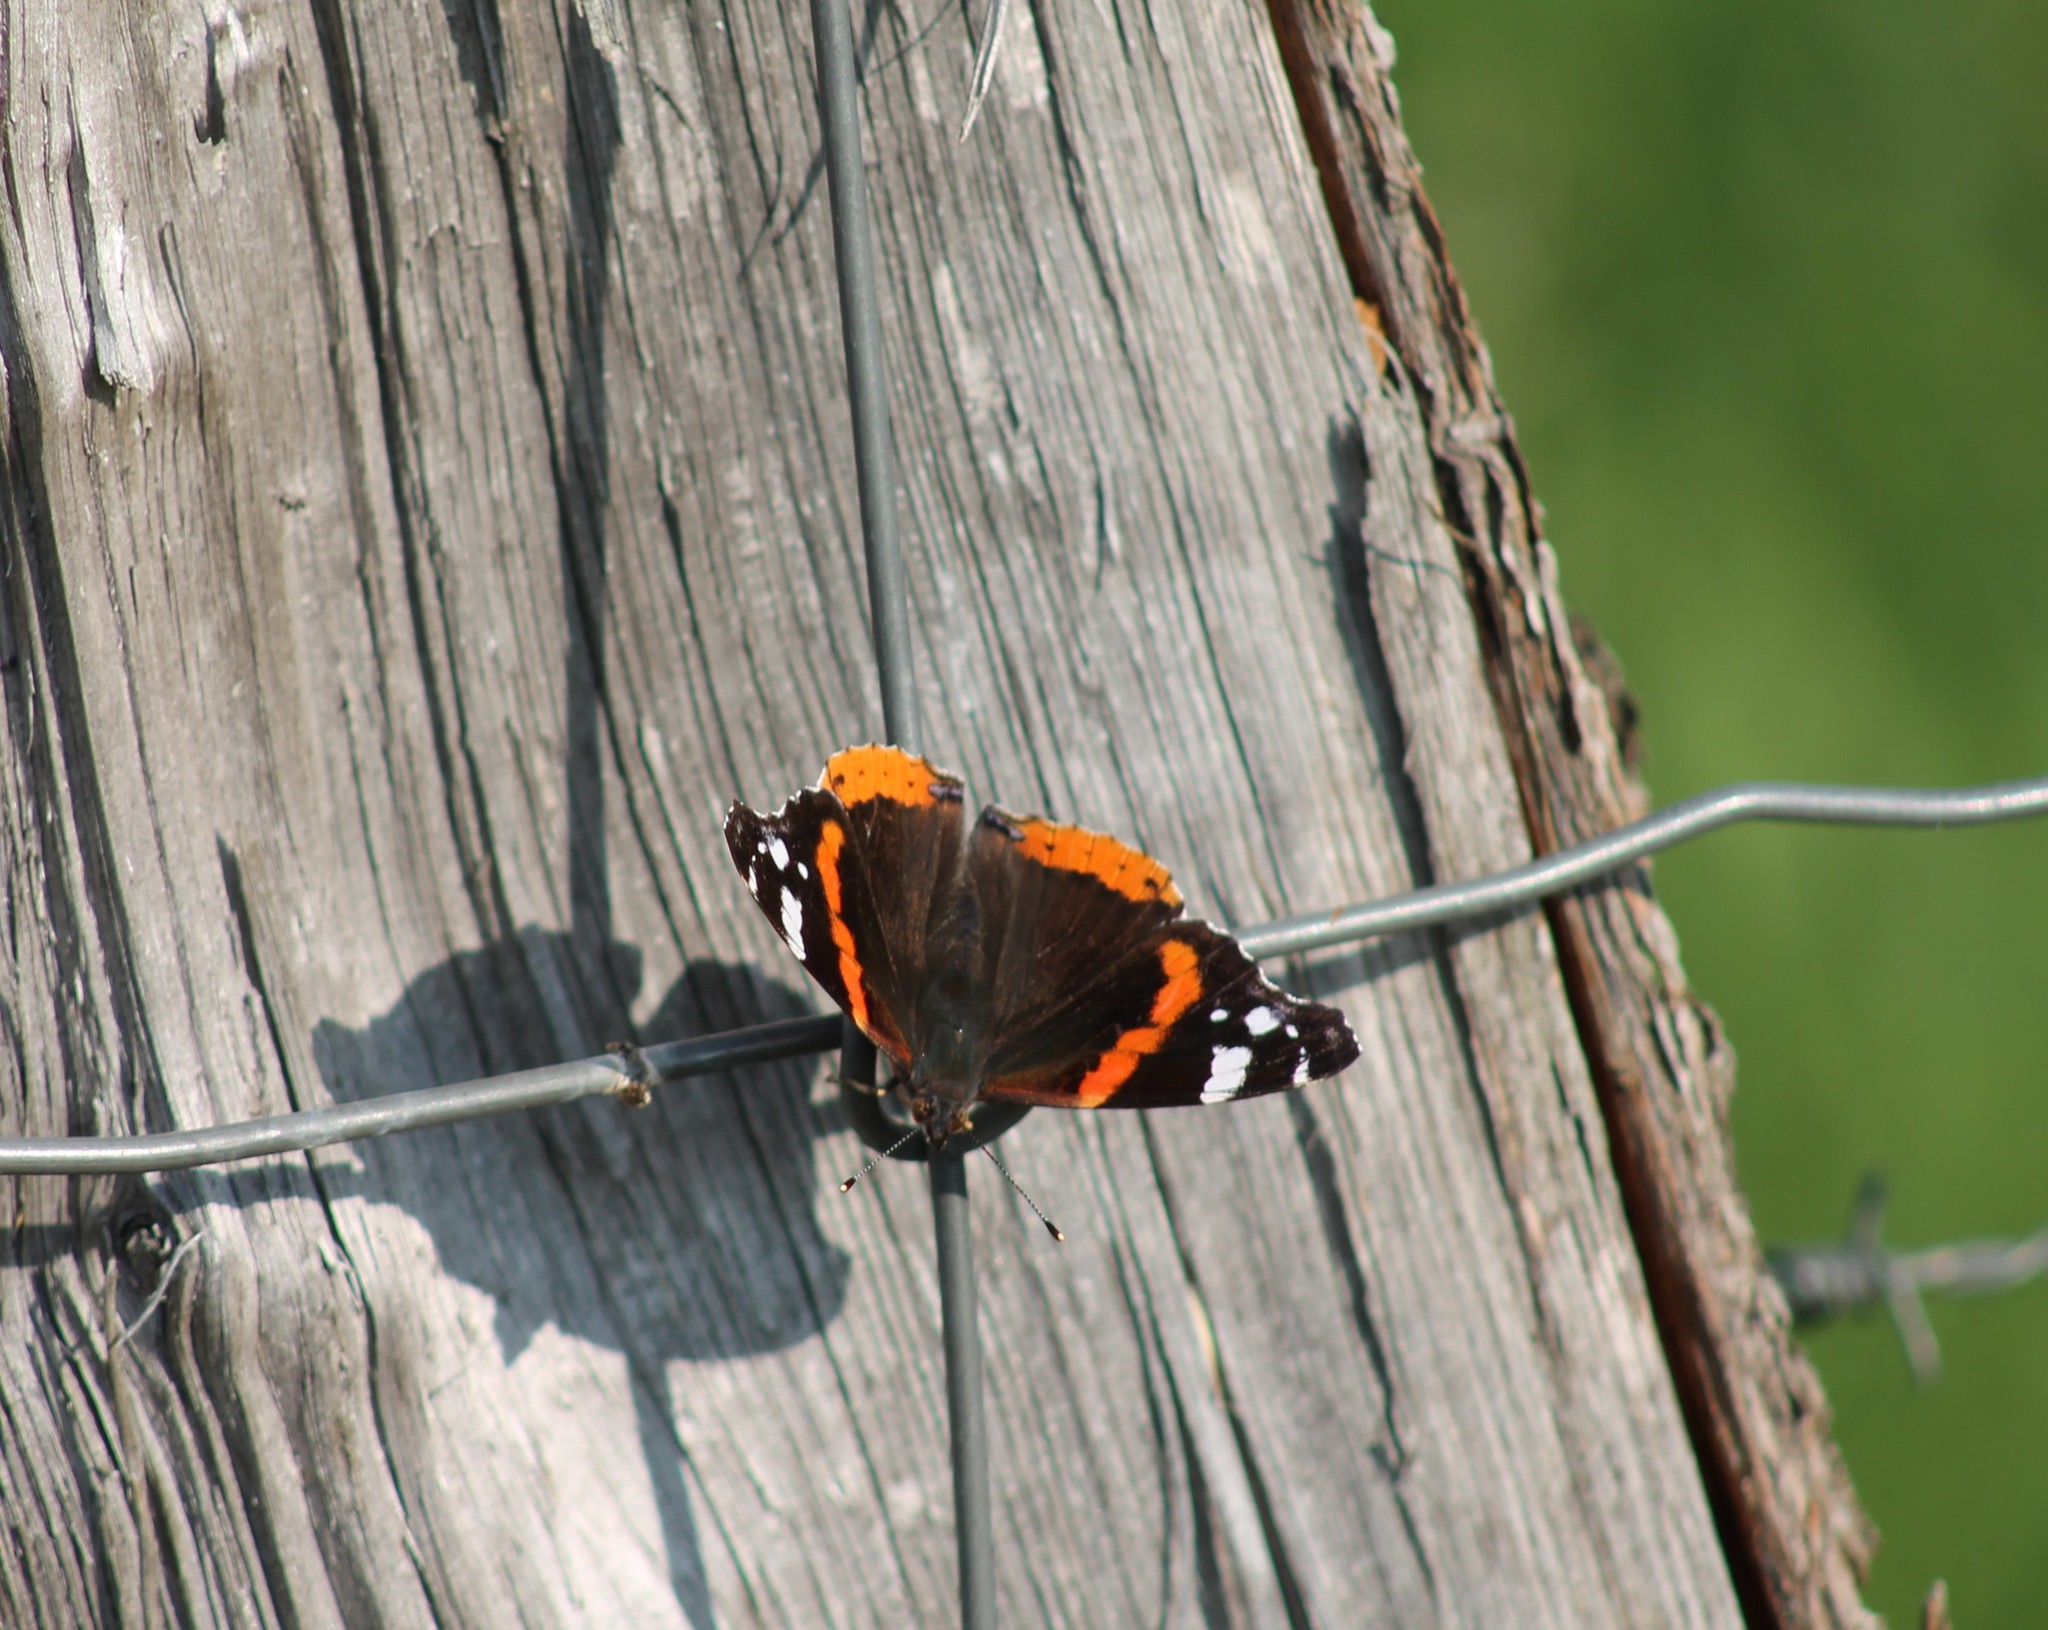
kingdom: Animalia
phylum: Arthropoda
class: Insecta
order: Lepidoptera
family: Nymphalidae
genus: Vanessa
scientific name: Vanessa atalanta
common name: Red admiral
